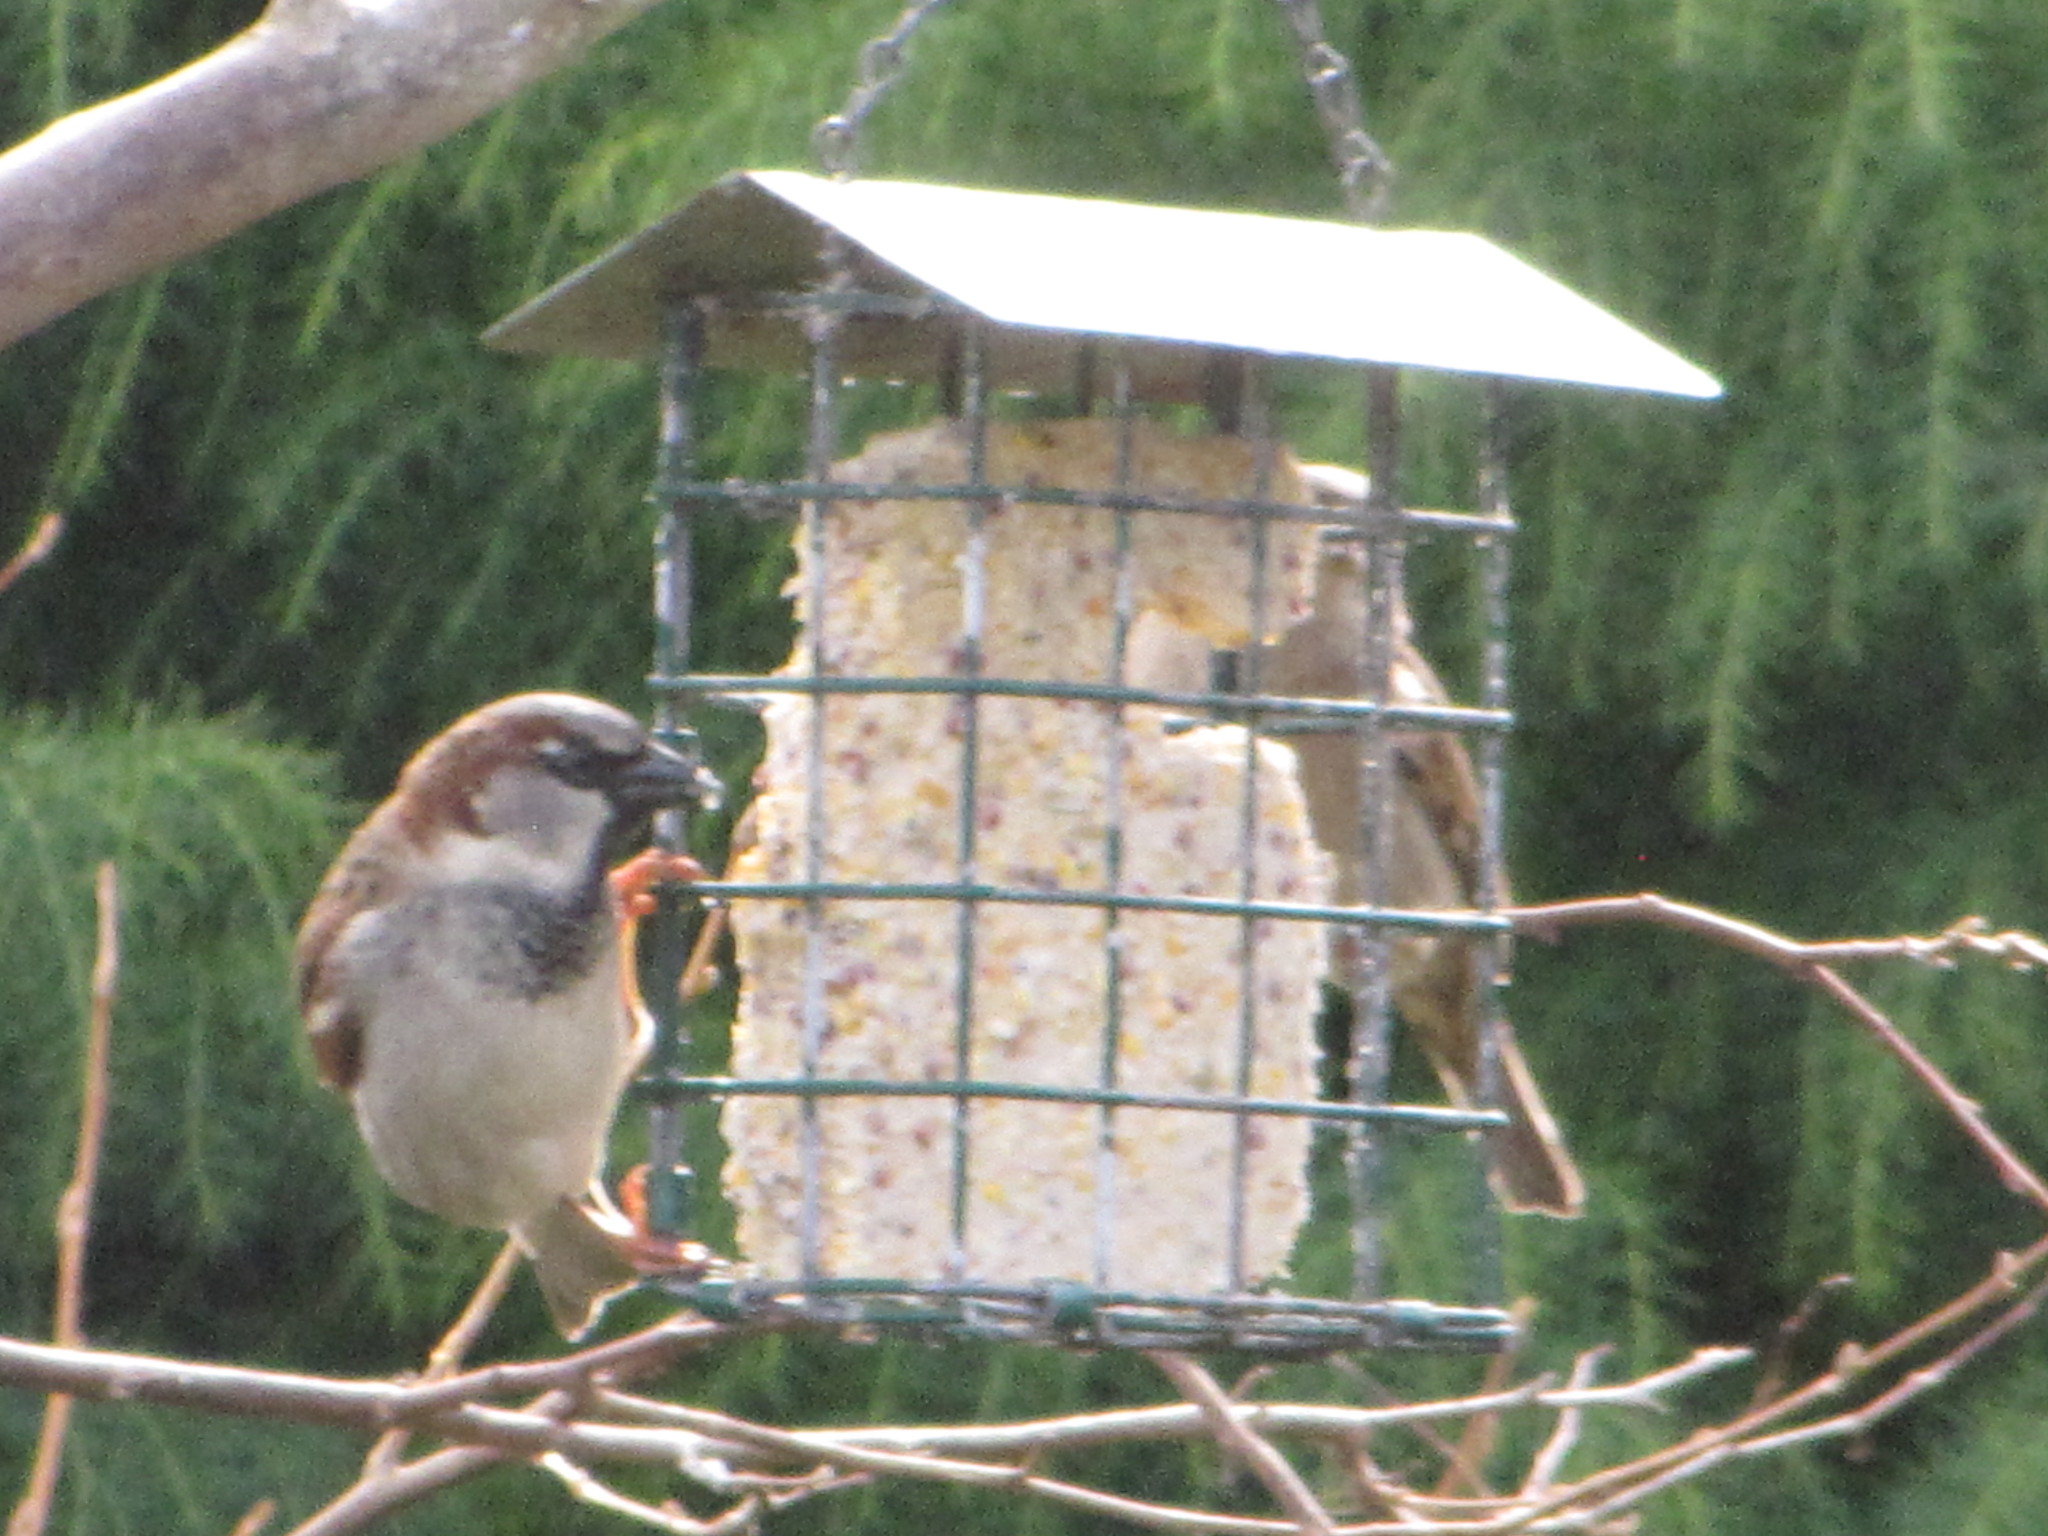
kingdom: Animalia
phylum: Chordata
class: Aves
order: Passeriformes
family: Passeridae
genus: Passer
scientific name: Passer domesticus
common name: House sparrow
